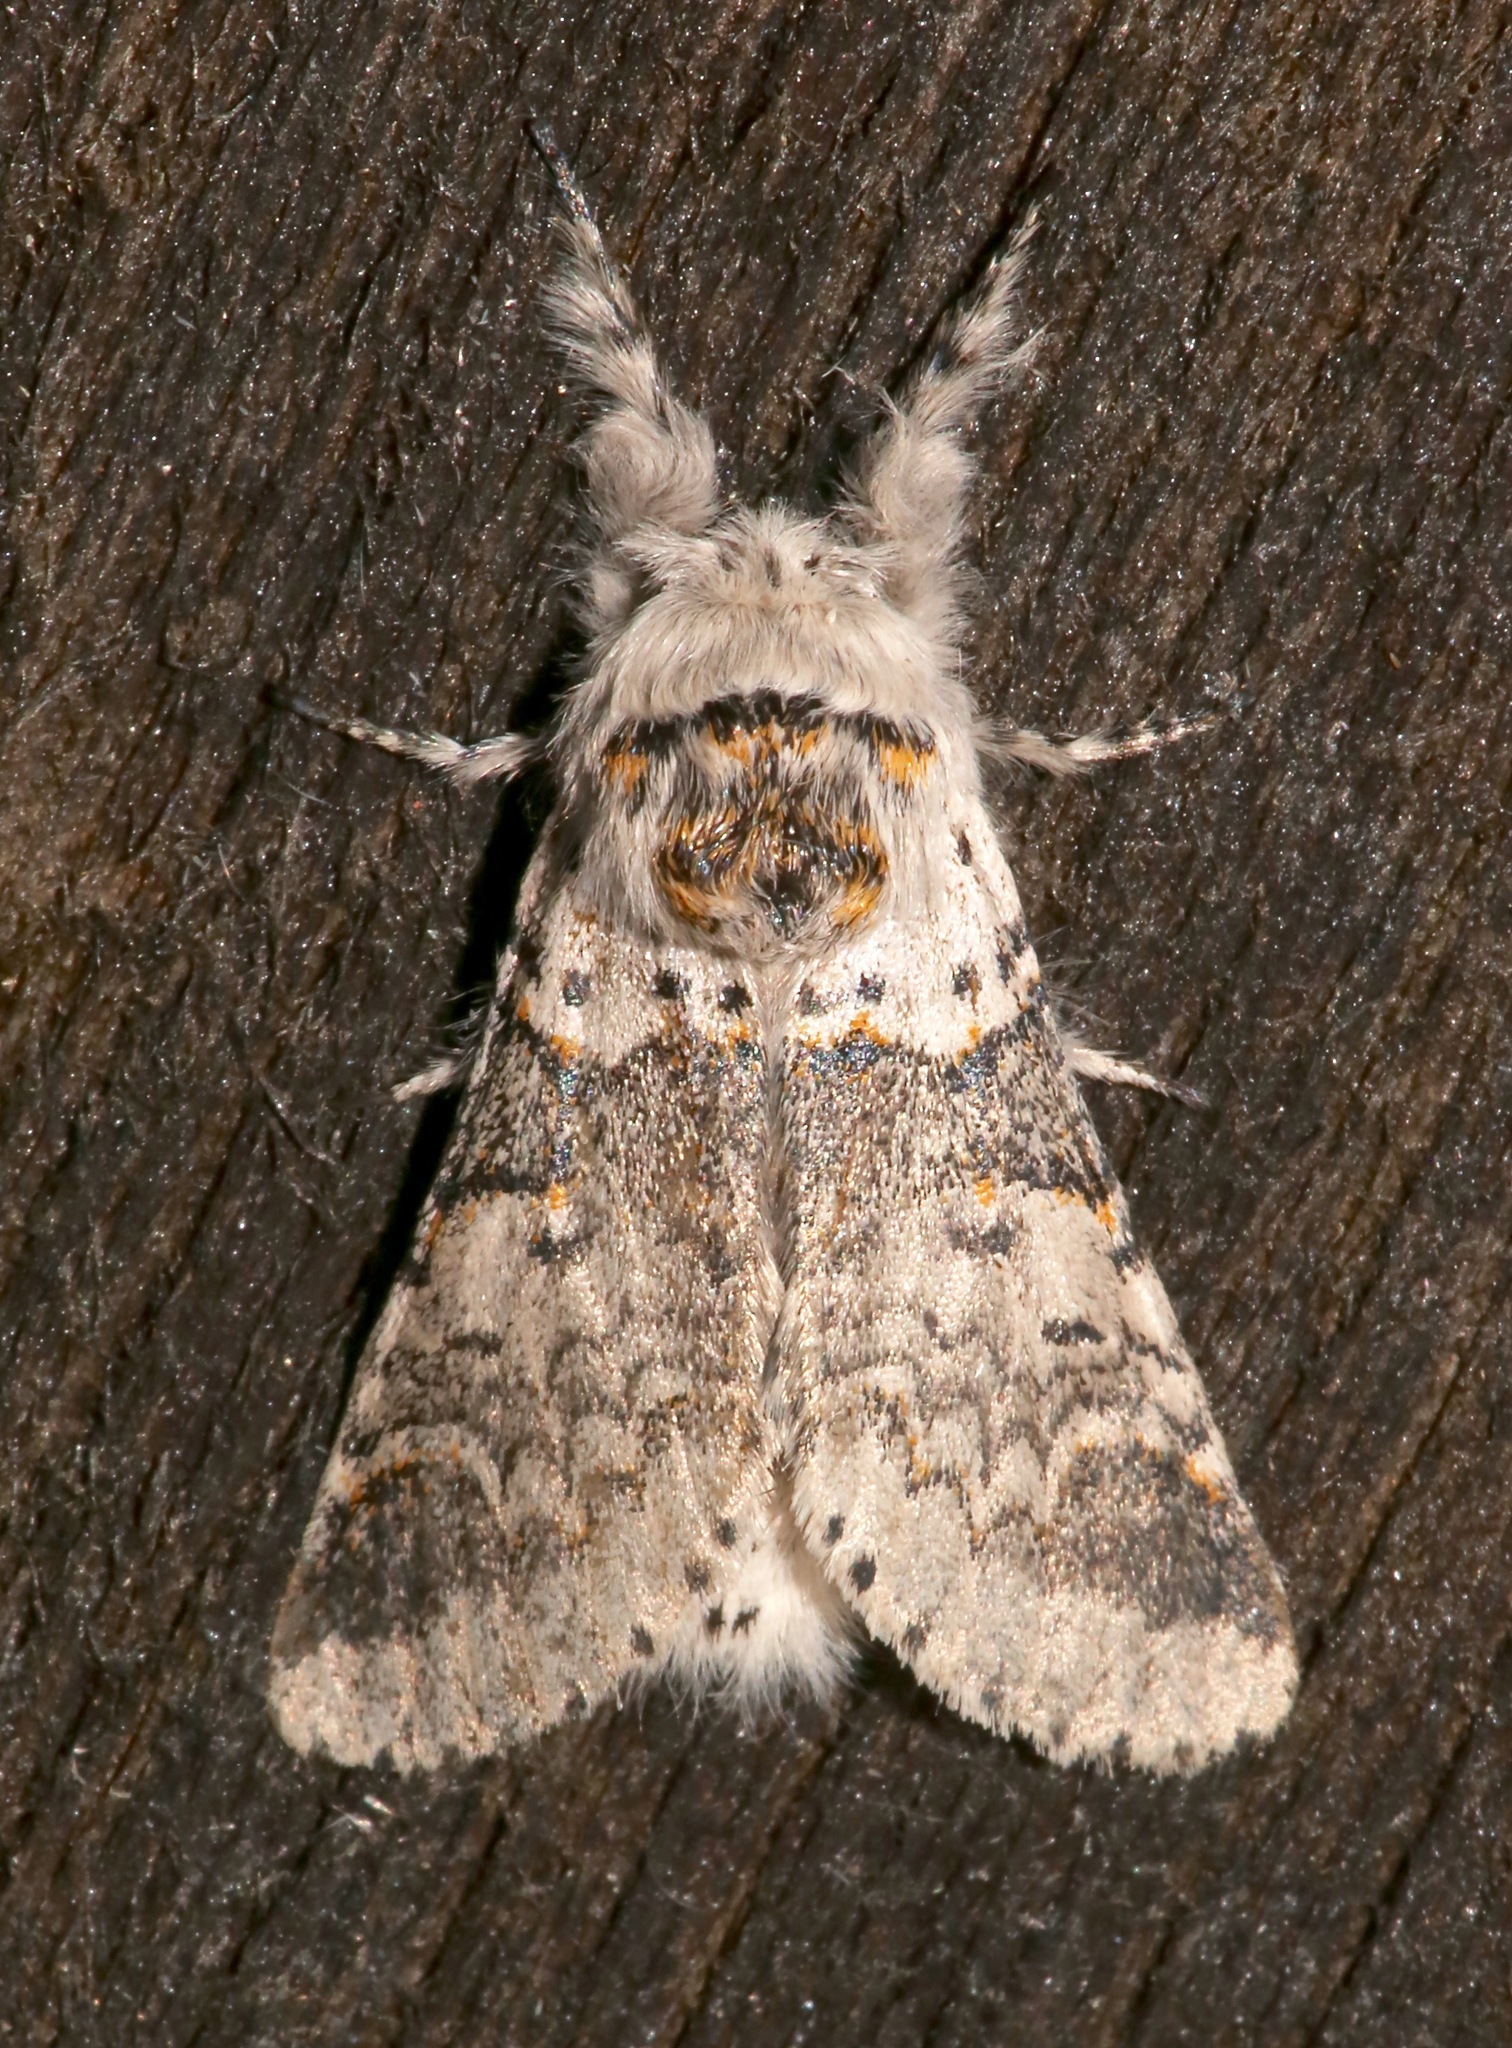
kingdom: Animalia
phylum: Arthropoda
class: Insecta
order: Lepidoptera
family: Notodontidae
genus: Furcula
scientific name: Furcula occidentalis
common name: Western furcula moth
